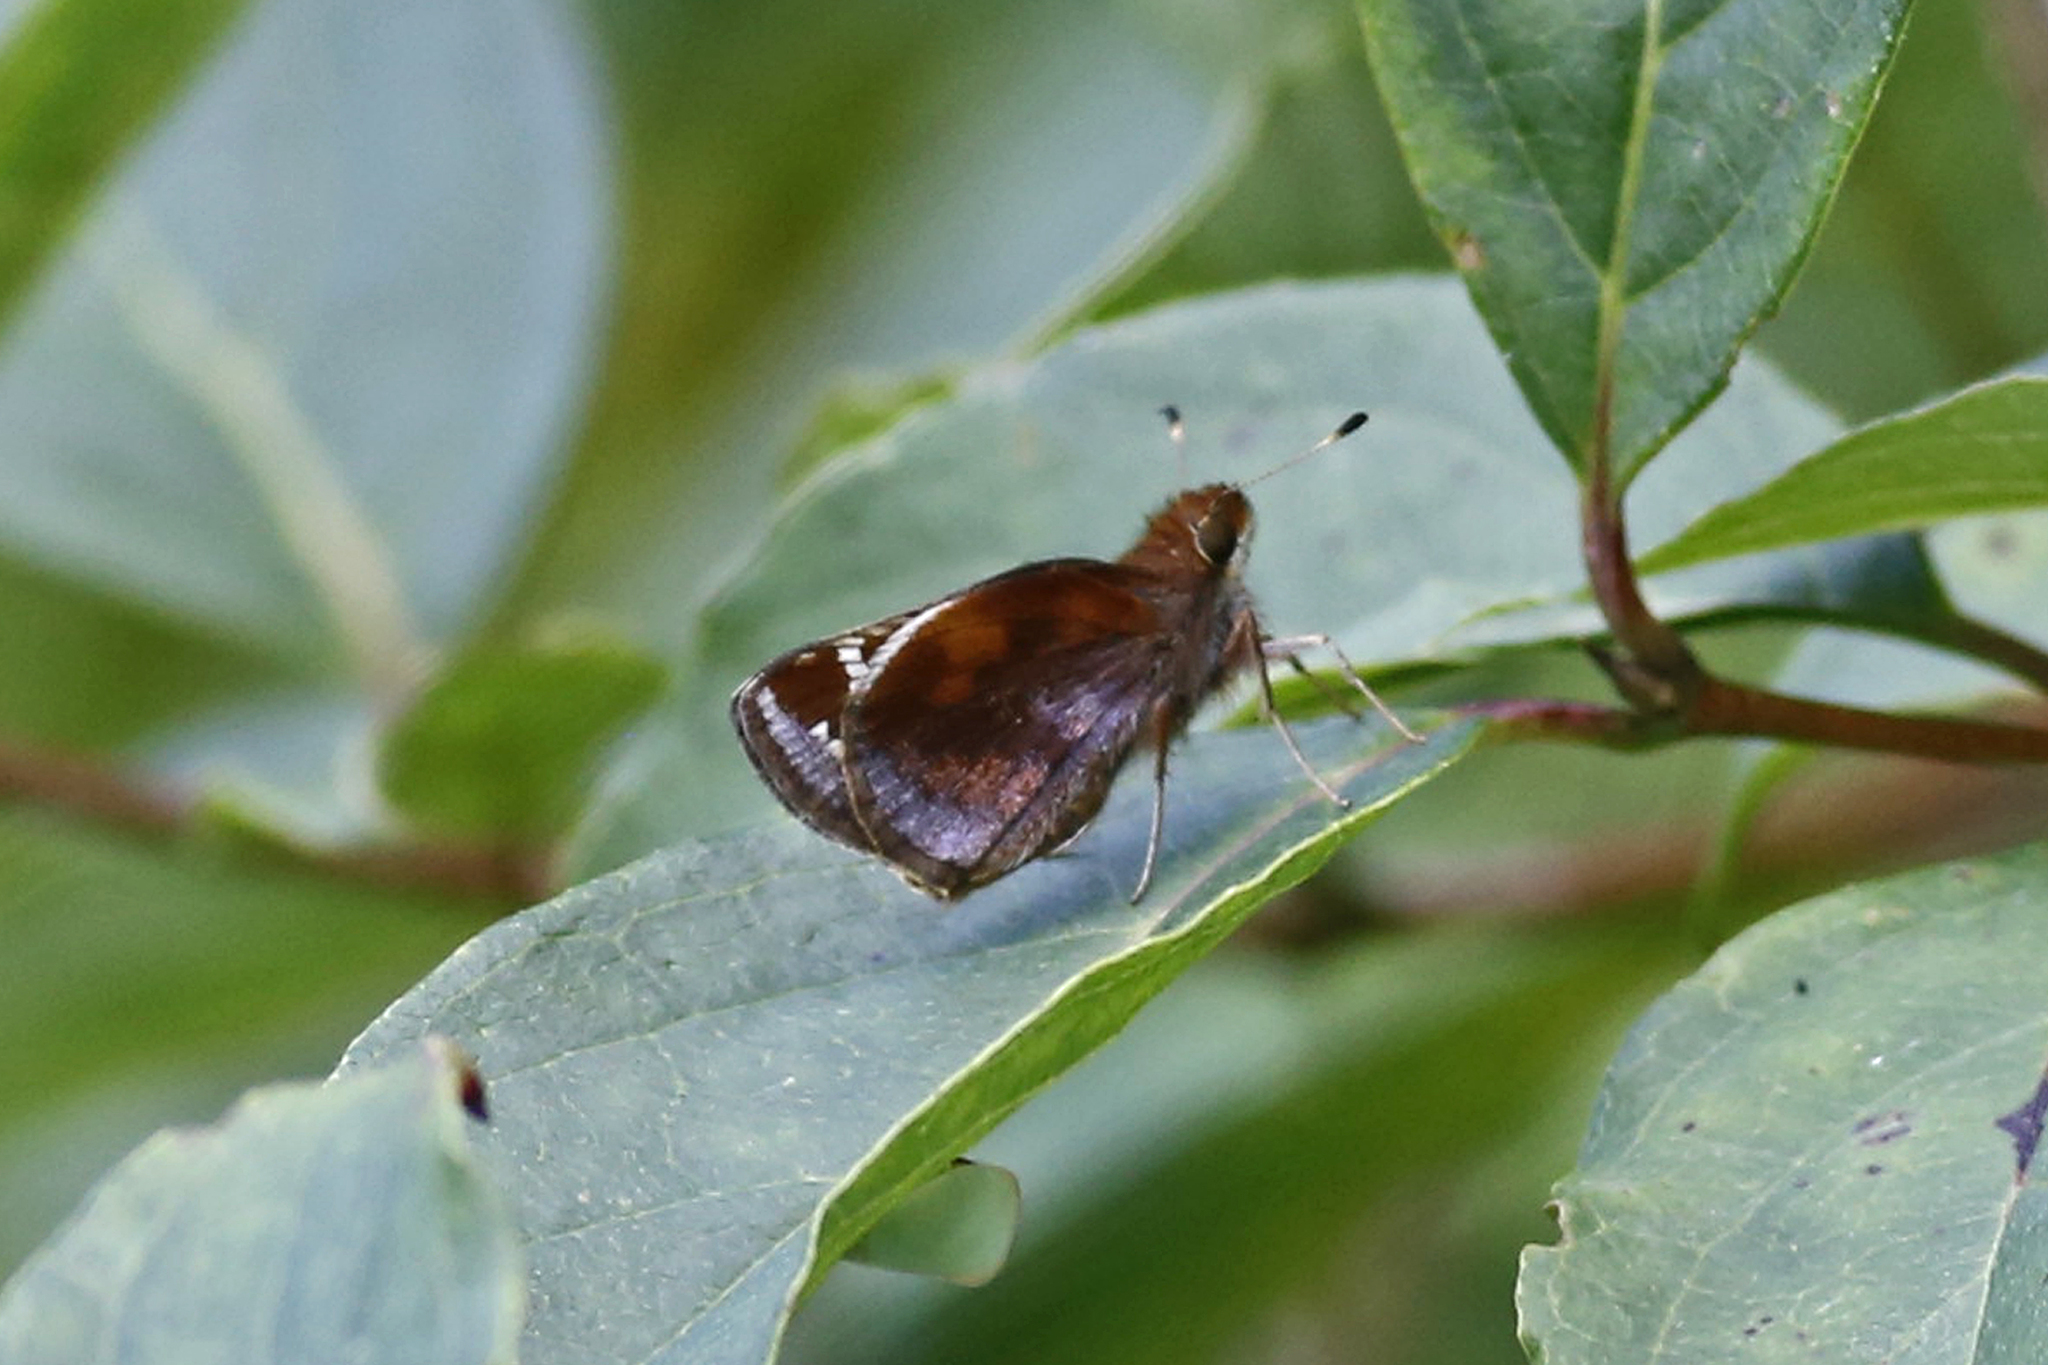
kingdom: Animalia
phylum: Arthropoda
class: Insecta
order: Lepidoptera
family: Hesperiidae
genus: Lon
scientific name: Lon zabulon
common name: Zabulon skipper
